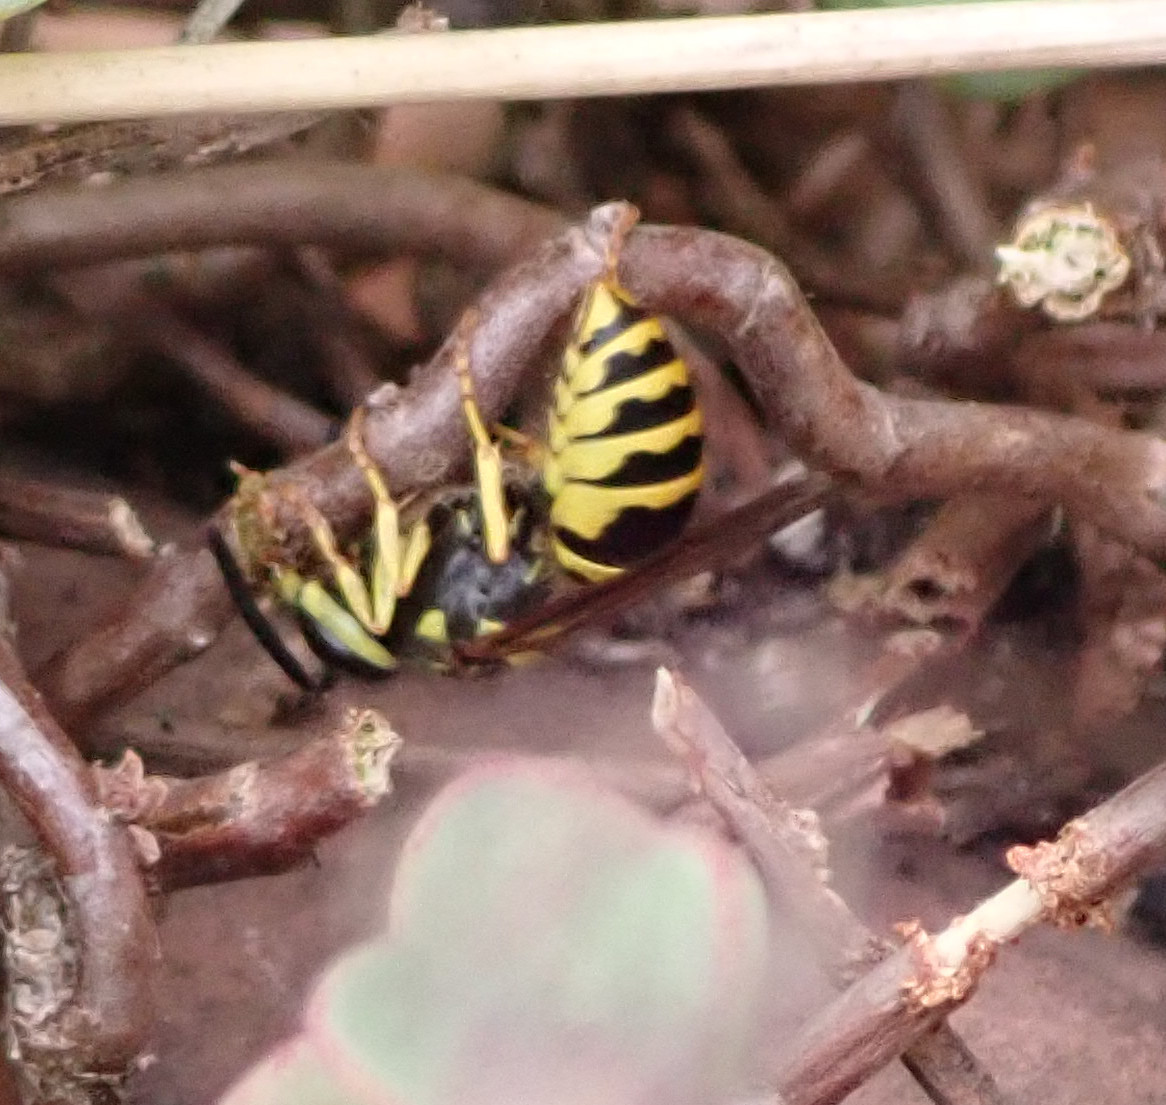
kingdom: Animalia
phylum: Arthropoda
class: Insecta
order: Hymenoptera
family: Vespidae
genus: Vespula
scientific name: Vespula
